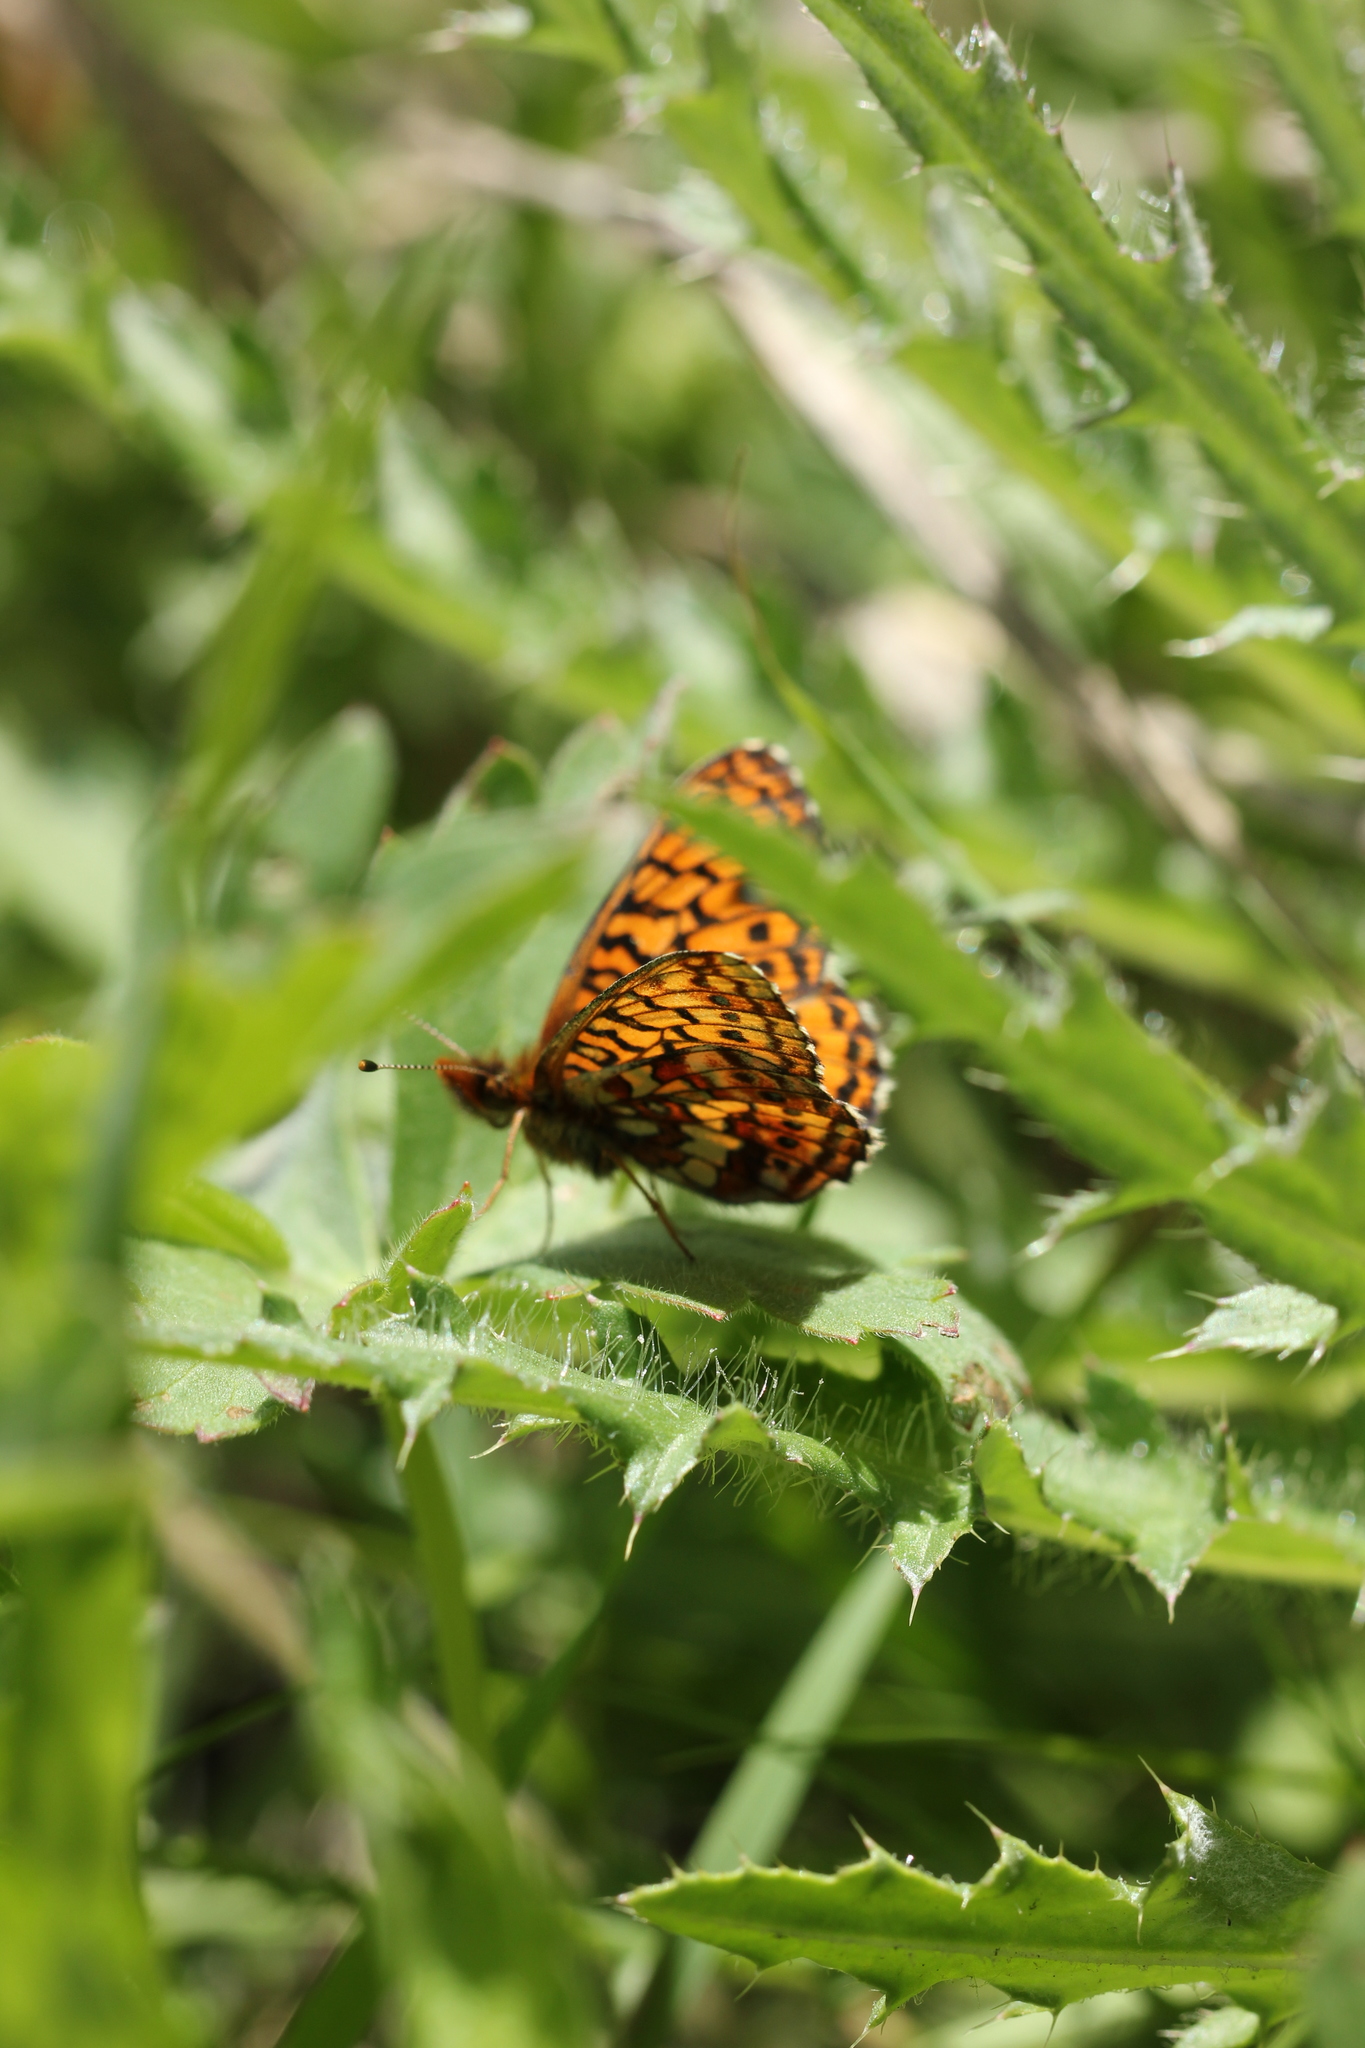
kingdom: Animalia
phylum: Arthropoda
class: Insecta
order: Lepidoptera
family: Nymphalidae
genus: Boloria
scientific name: Boloria kriemhild
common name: Relict fritillary
